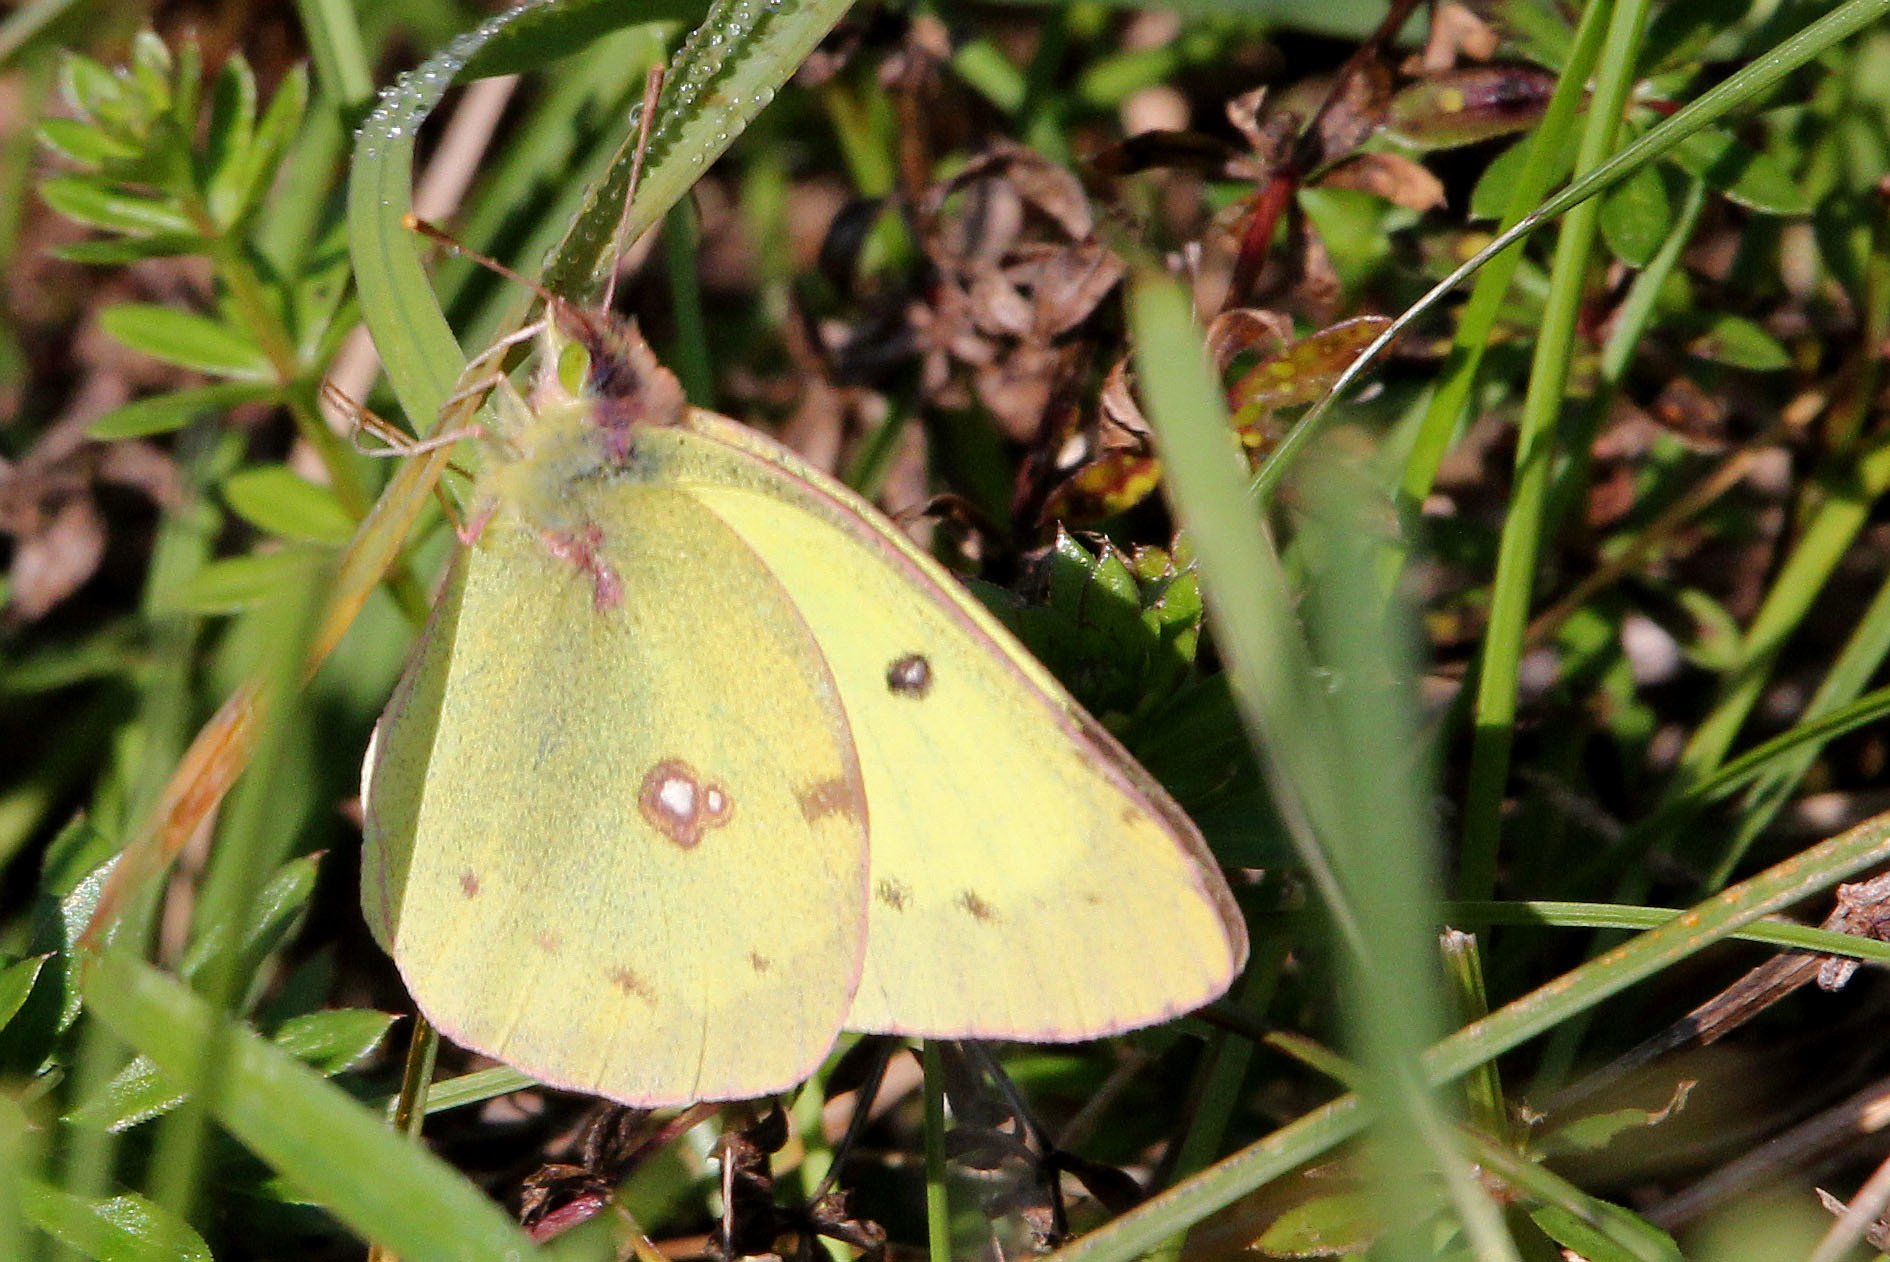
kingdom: Animalia
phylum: Arthropoda
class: Insecta
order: Lepidoptera
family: Pieridae
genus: Colias
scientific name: Colias philodice
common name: Clouded sulphur
